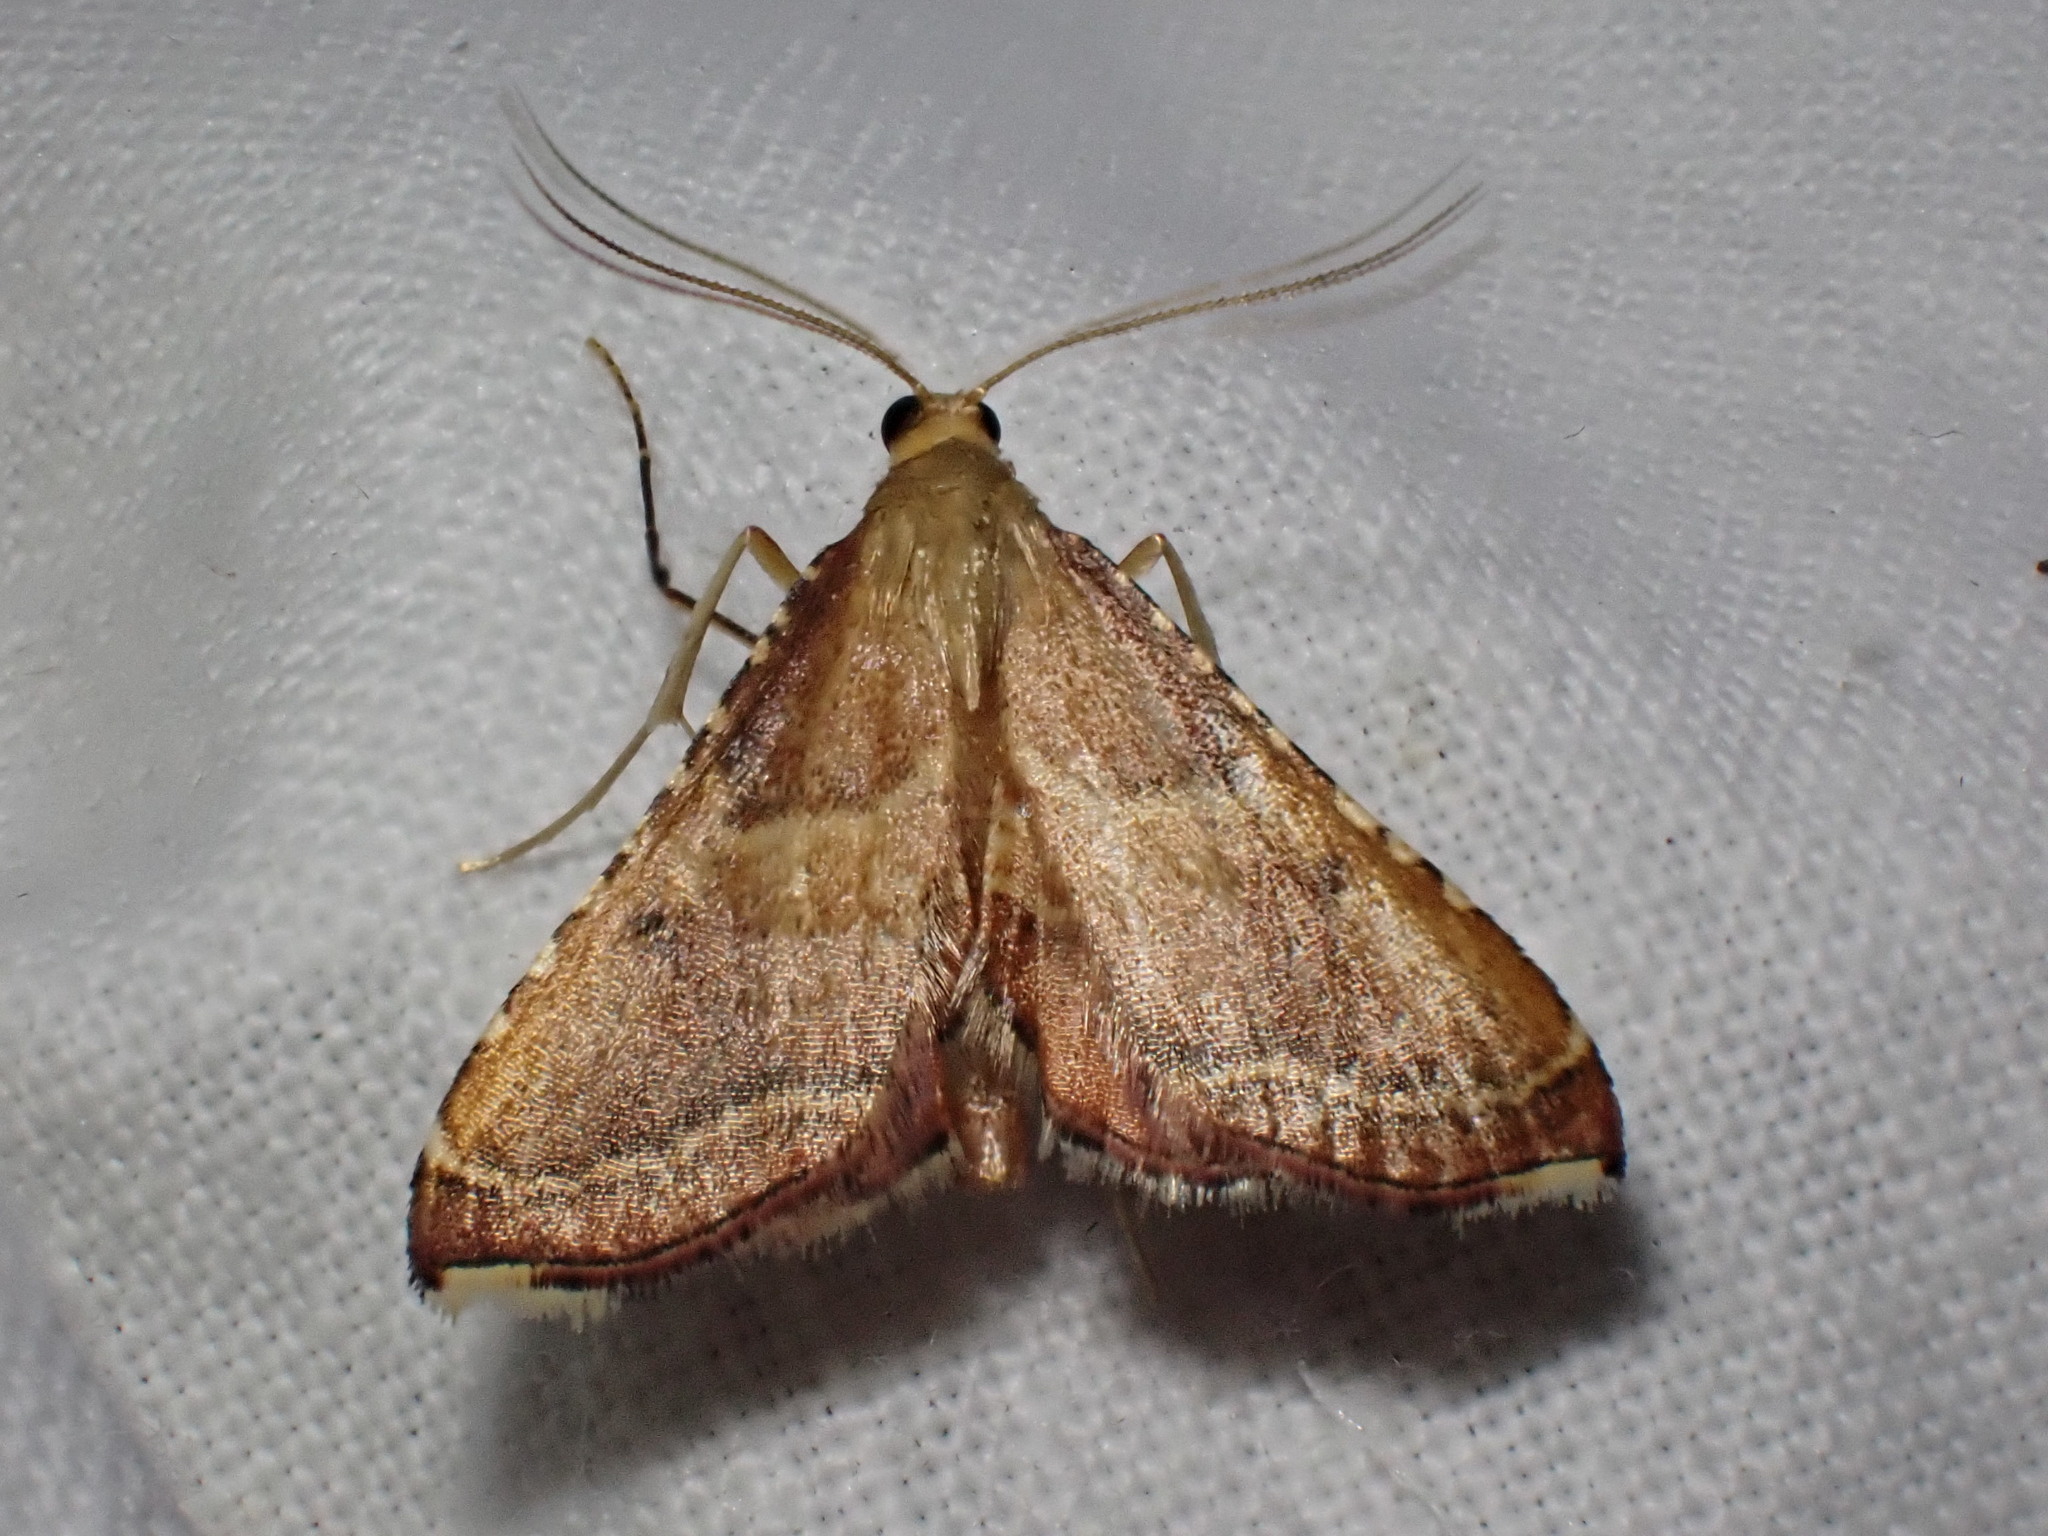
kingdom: Animalia
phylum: Arthropoda
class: Insecta
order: Lepidoptera
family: Pyralidae
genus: Endotricha
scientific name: Endotricha flammealis
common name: Rosy tabby
